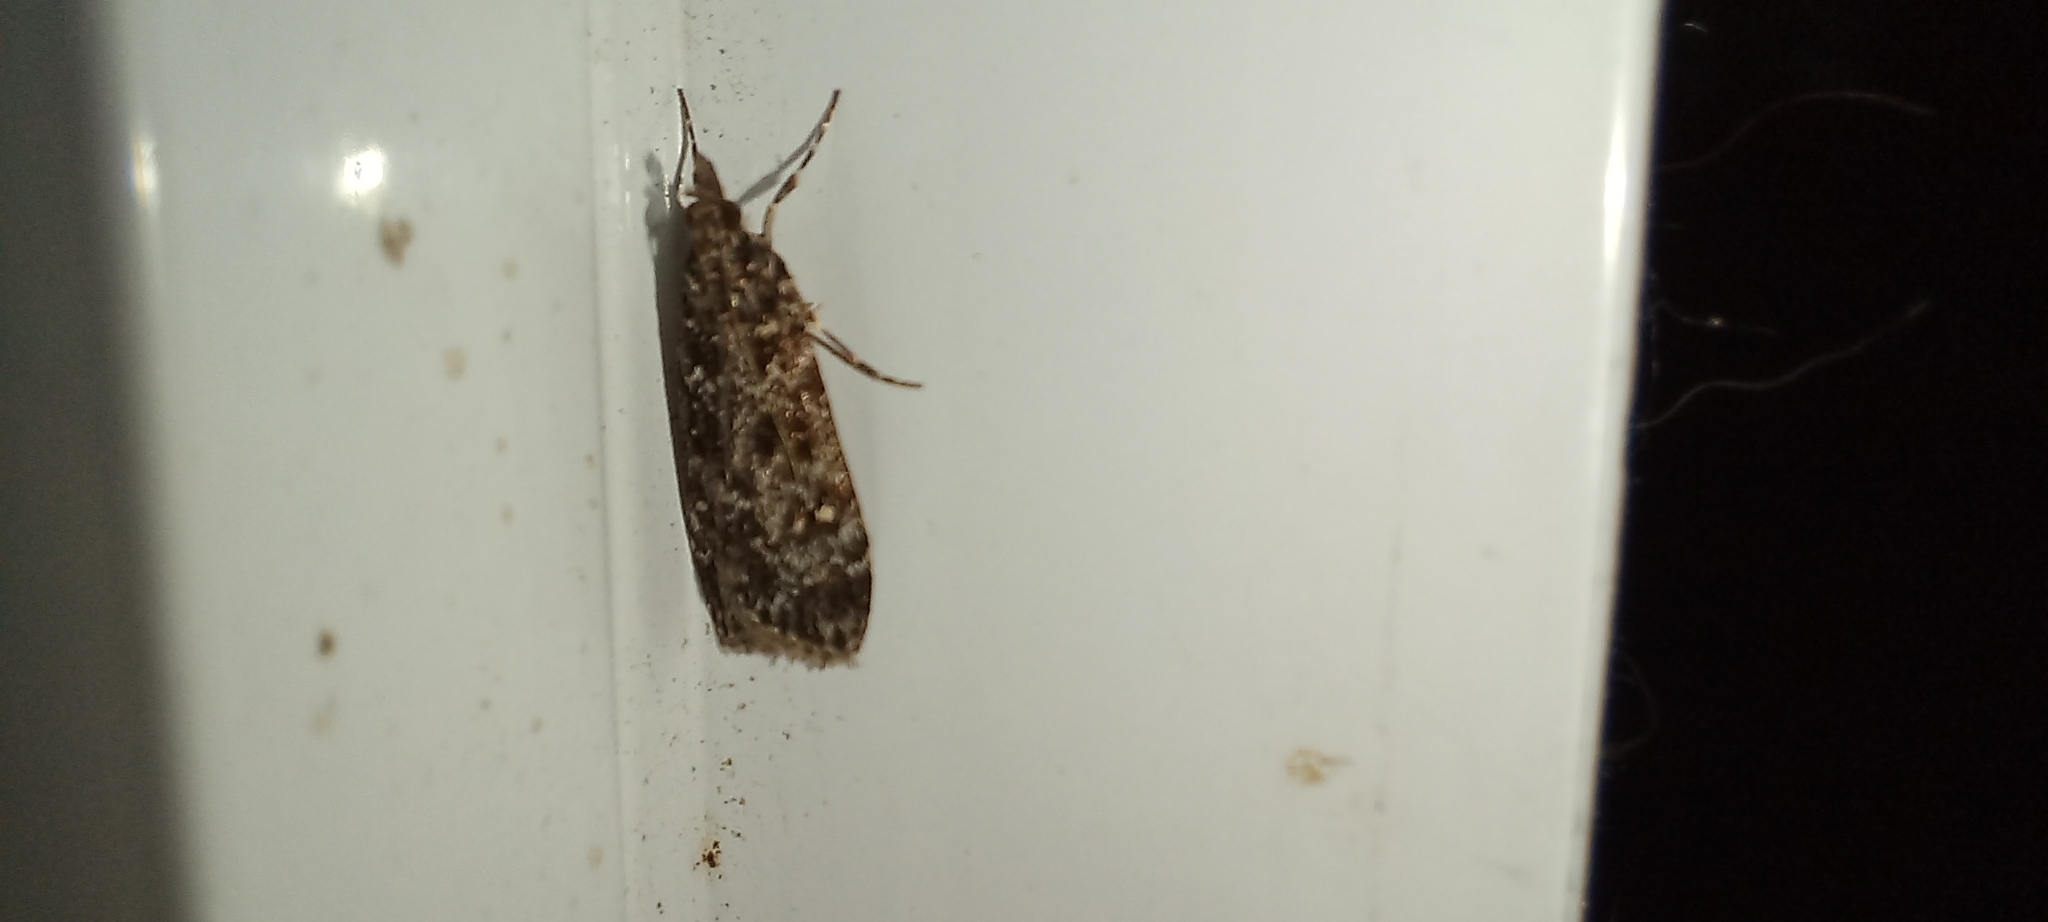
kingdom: Animalia
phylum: Arthropoda
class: Insecta
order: Lepidoptera
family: Crambidae
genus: Eudonia
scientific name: Eudonia philerga
